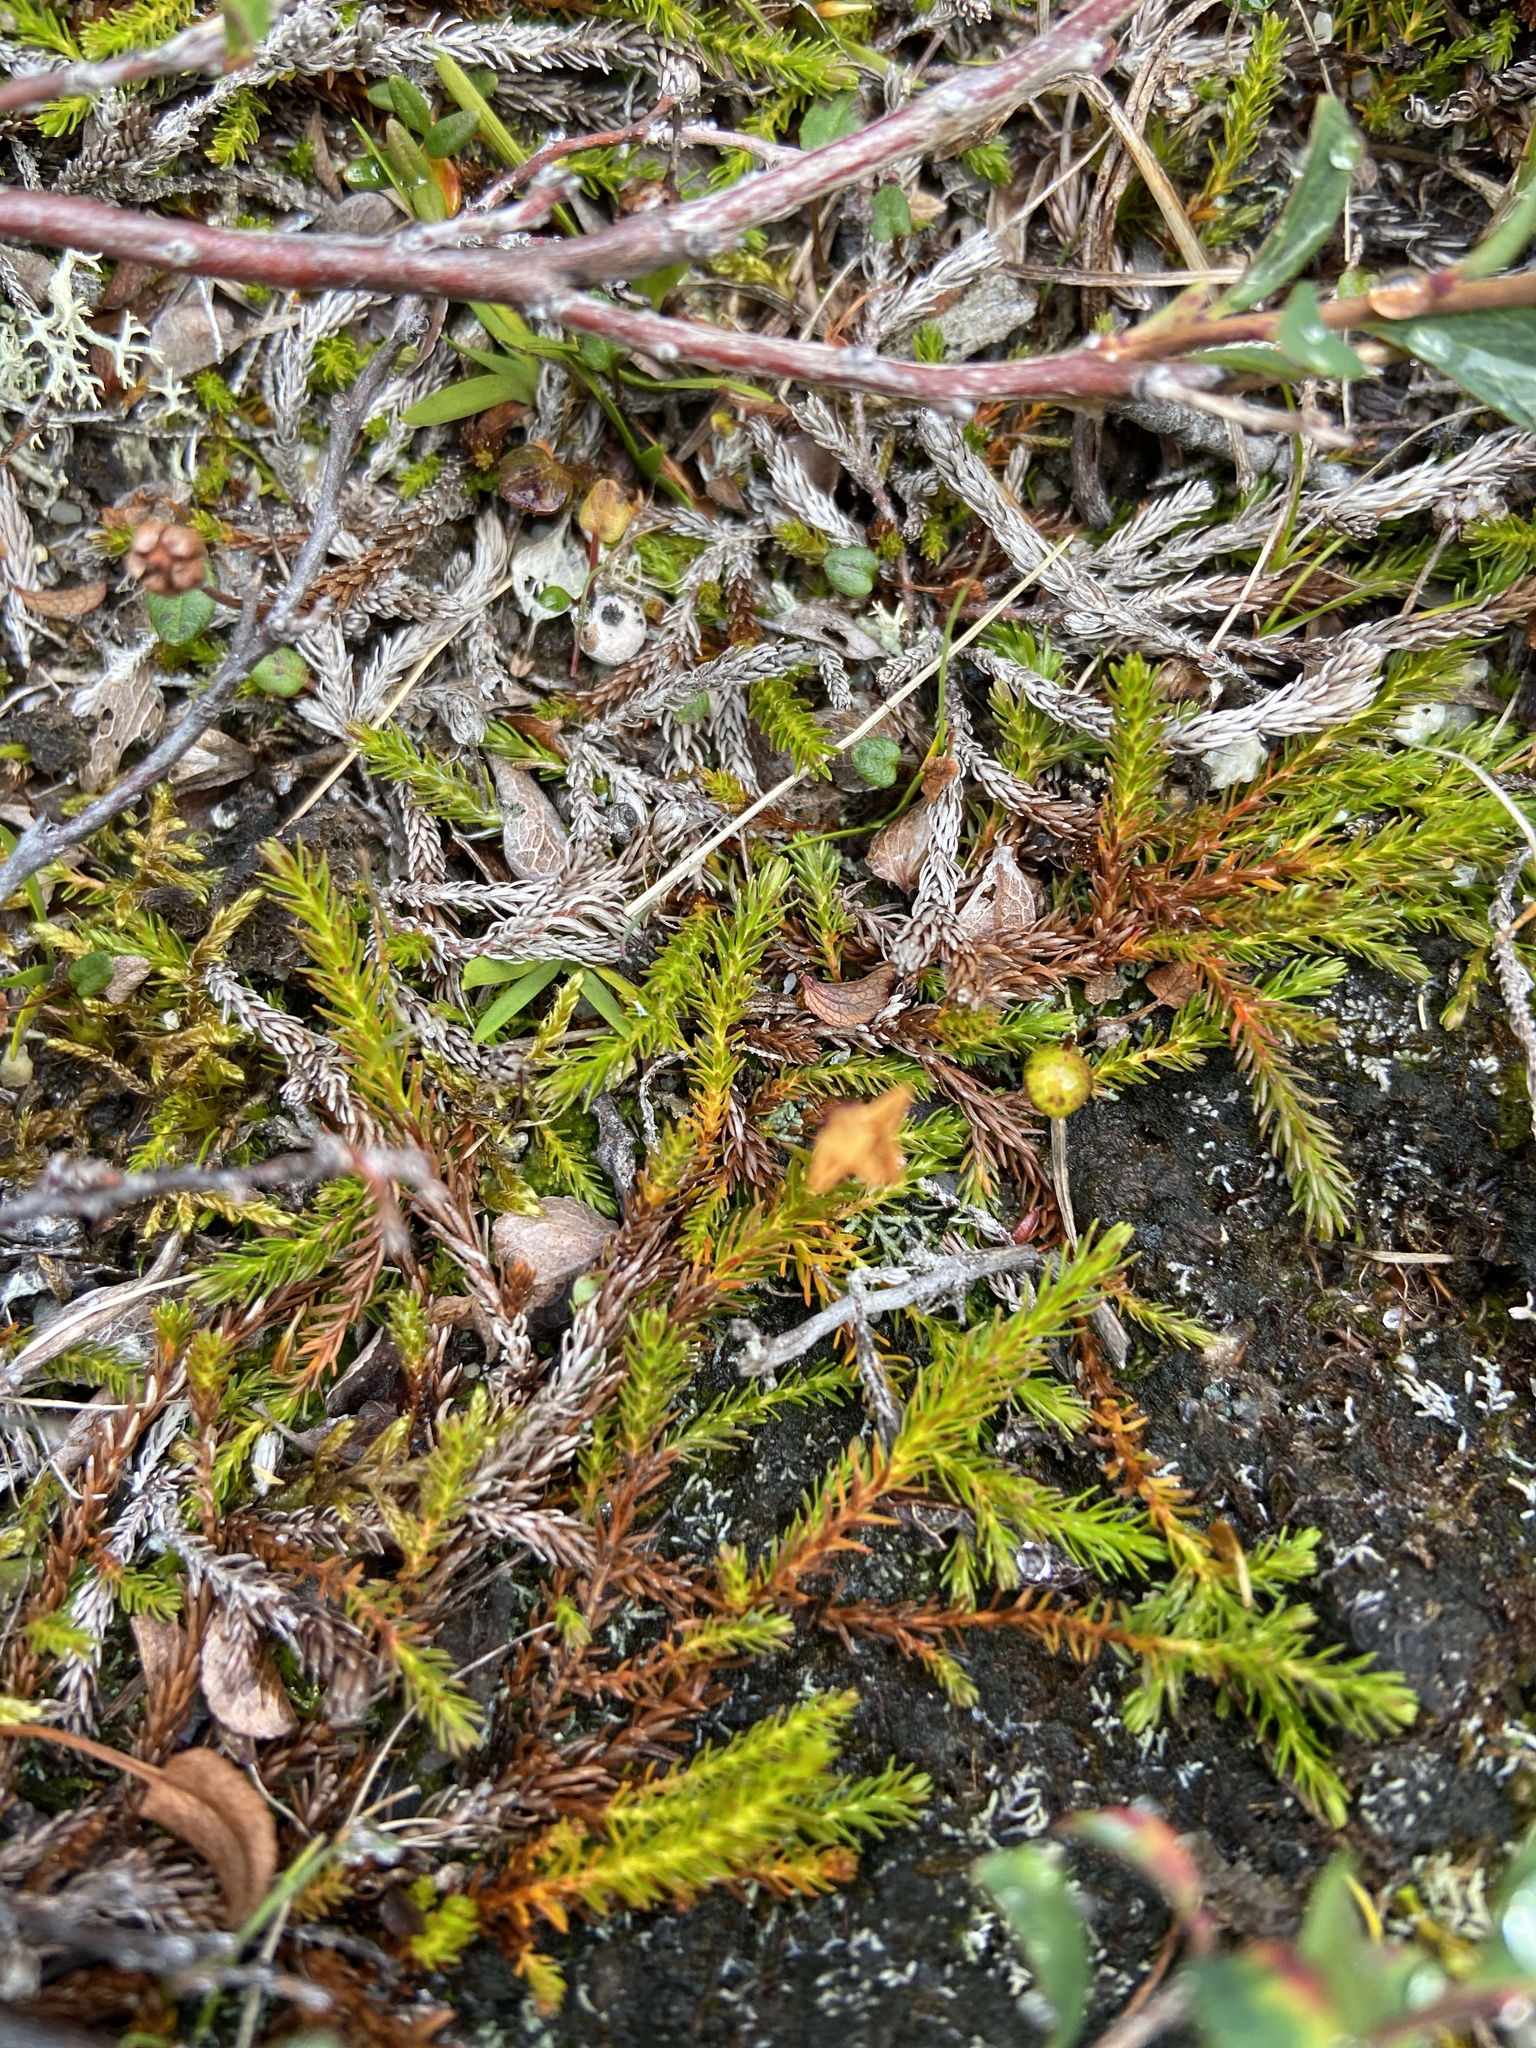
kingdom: Plantae
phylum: Tracheophyta
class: Magnoliopsida
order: Ericales
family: Ericaceae
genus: Harrimanella
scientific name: Harrimanella hypnoides
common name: Moss bell heather
